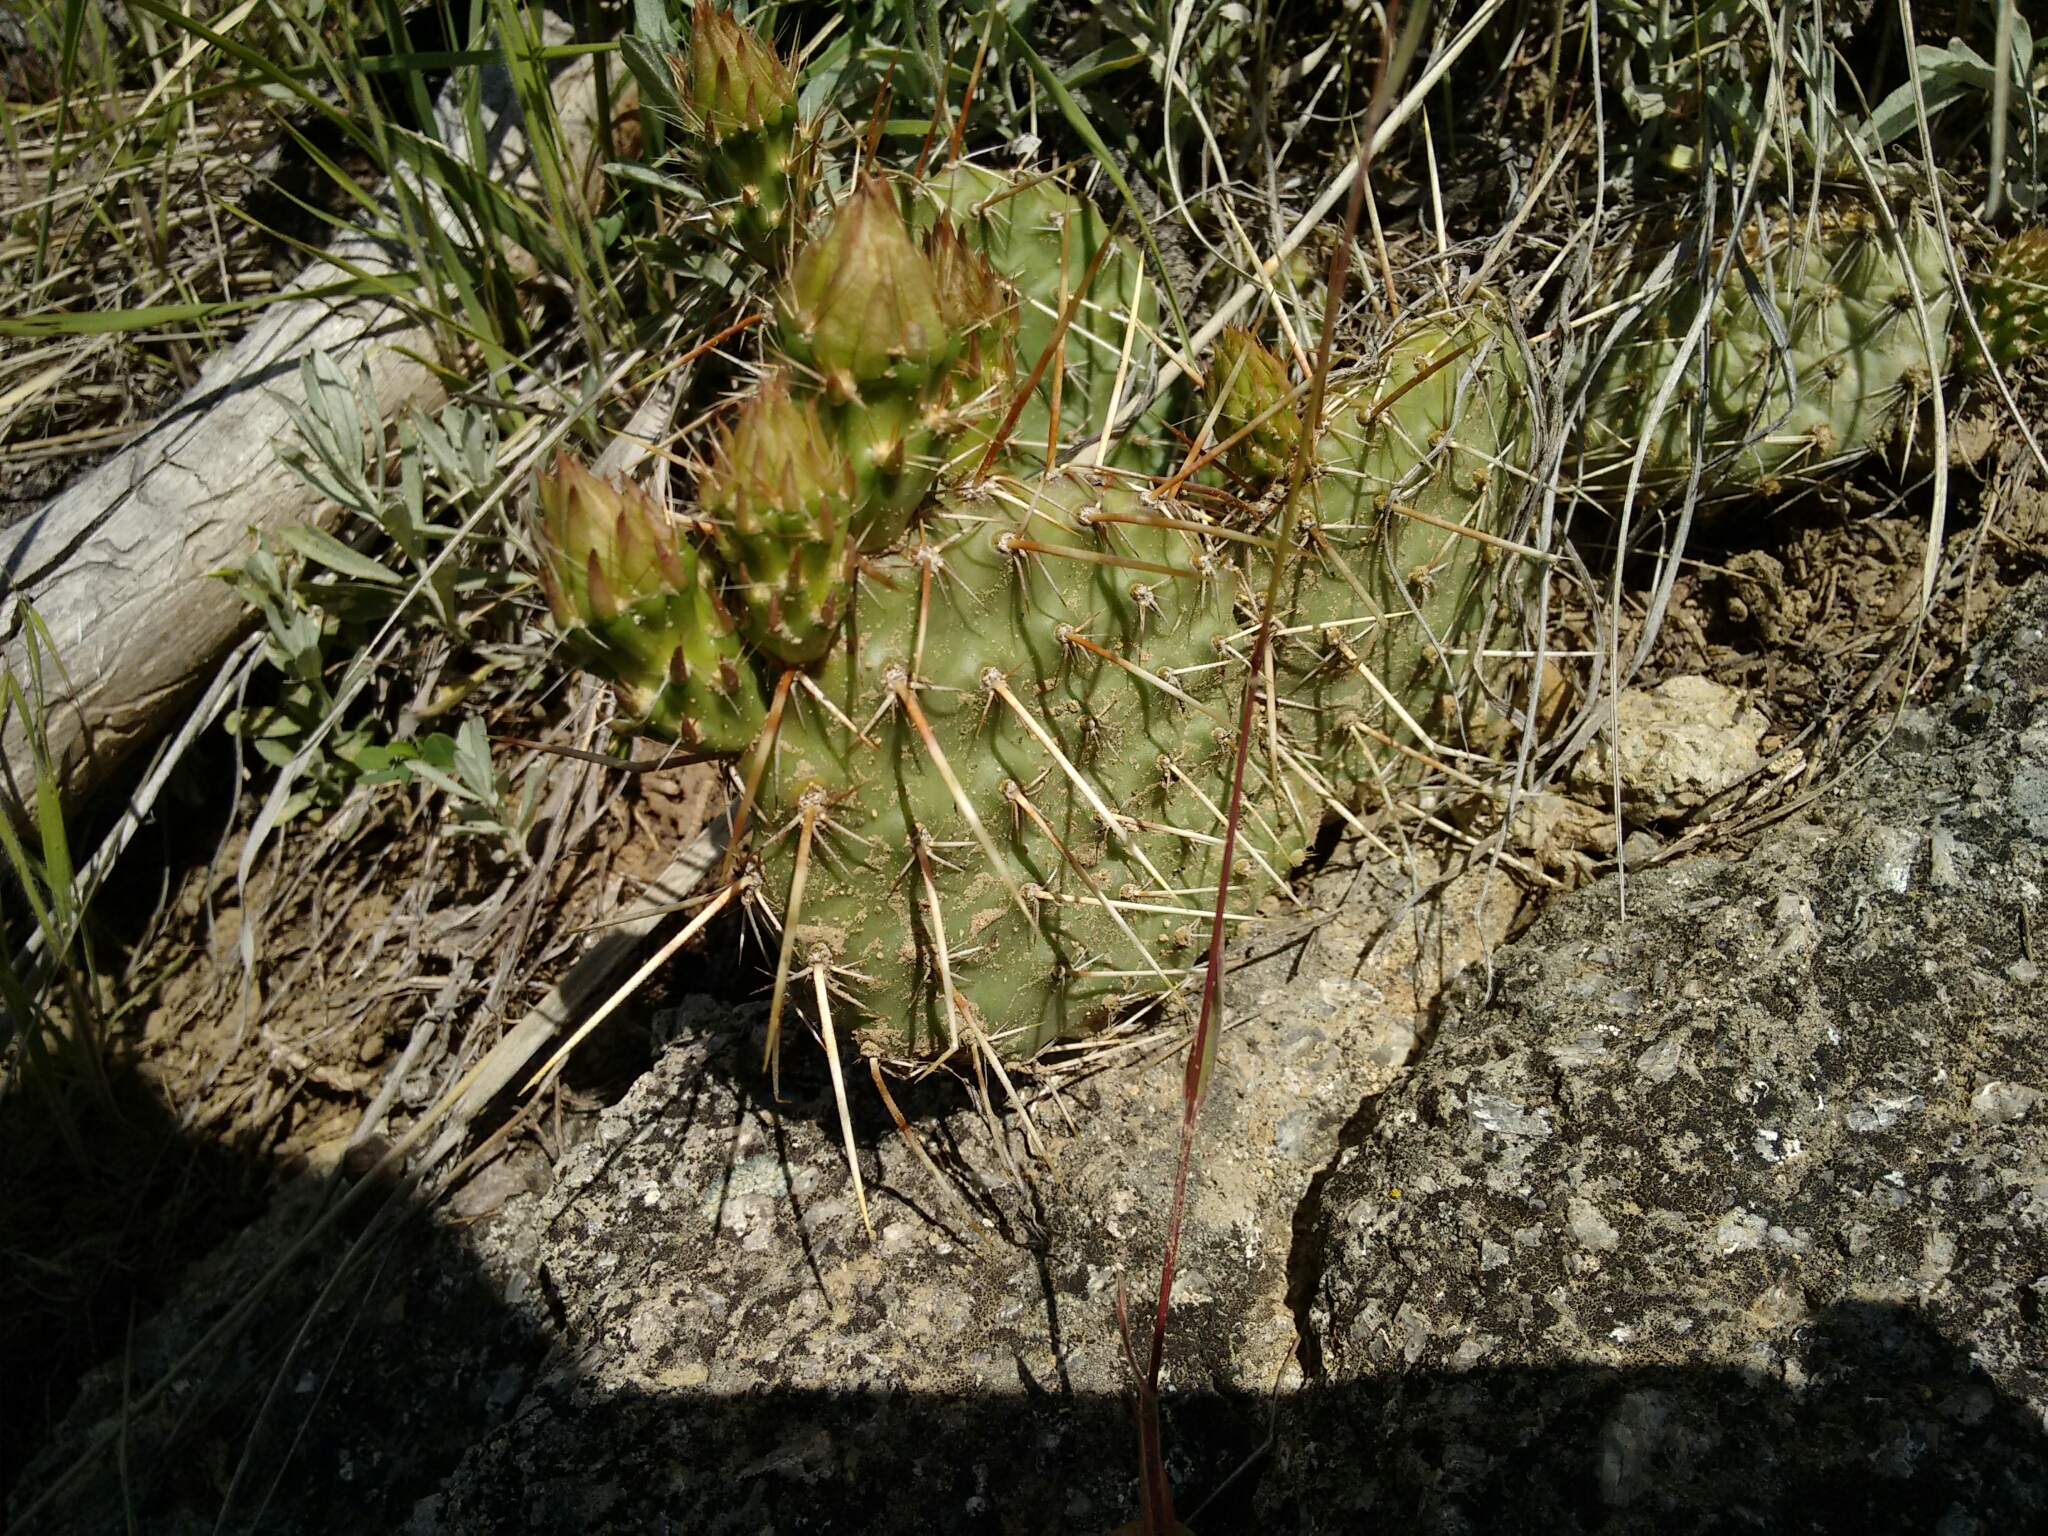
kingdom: Plantae
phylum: Tracheophyta
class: Magnoliopsida
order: Caryophyllales
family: Cactaceae
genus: Opuntia
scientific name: Opuntia polyacantha
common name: Plains prickly-pear
